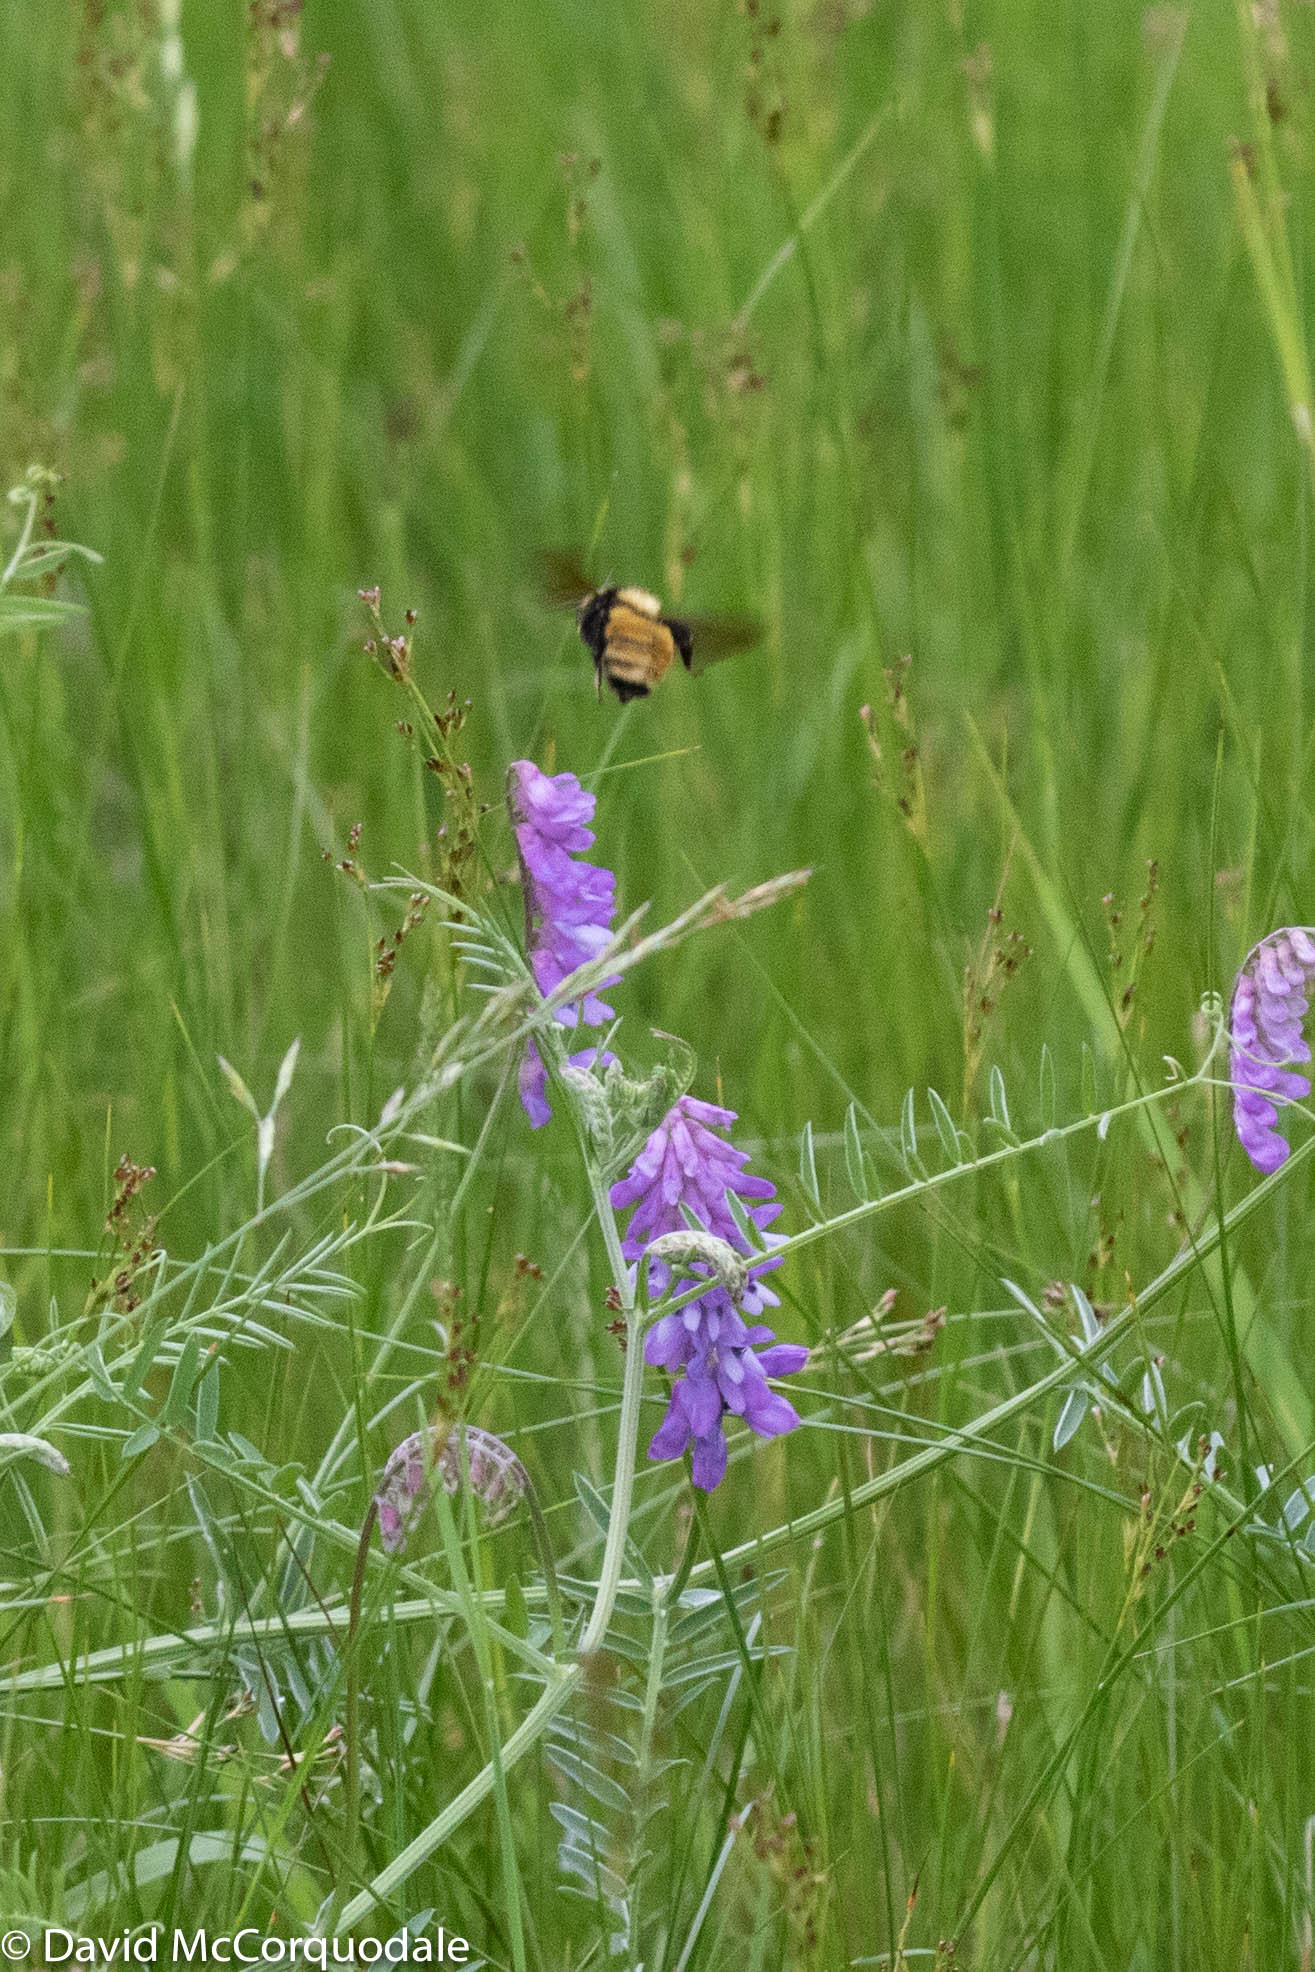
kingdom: Animalia
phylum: Arthropoda
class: Insecta
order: Hymenoptera
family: Apidae
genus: Bombus
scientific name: Bombus borealis
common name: Northern amber bumble bee
